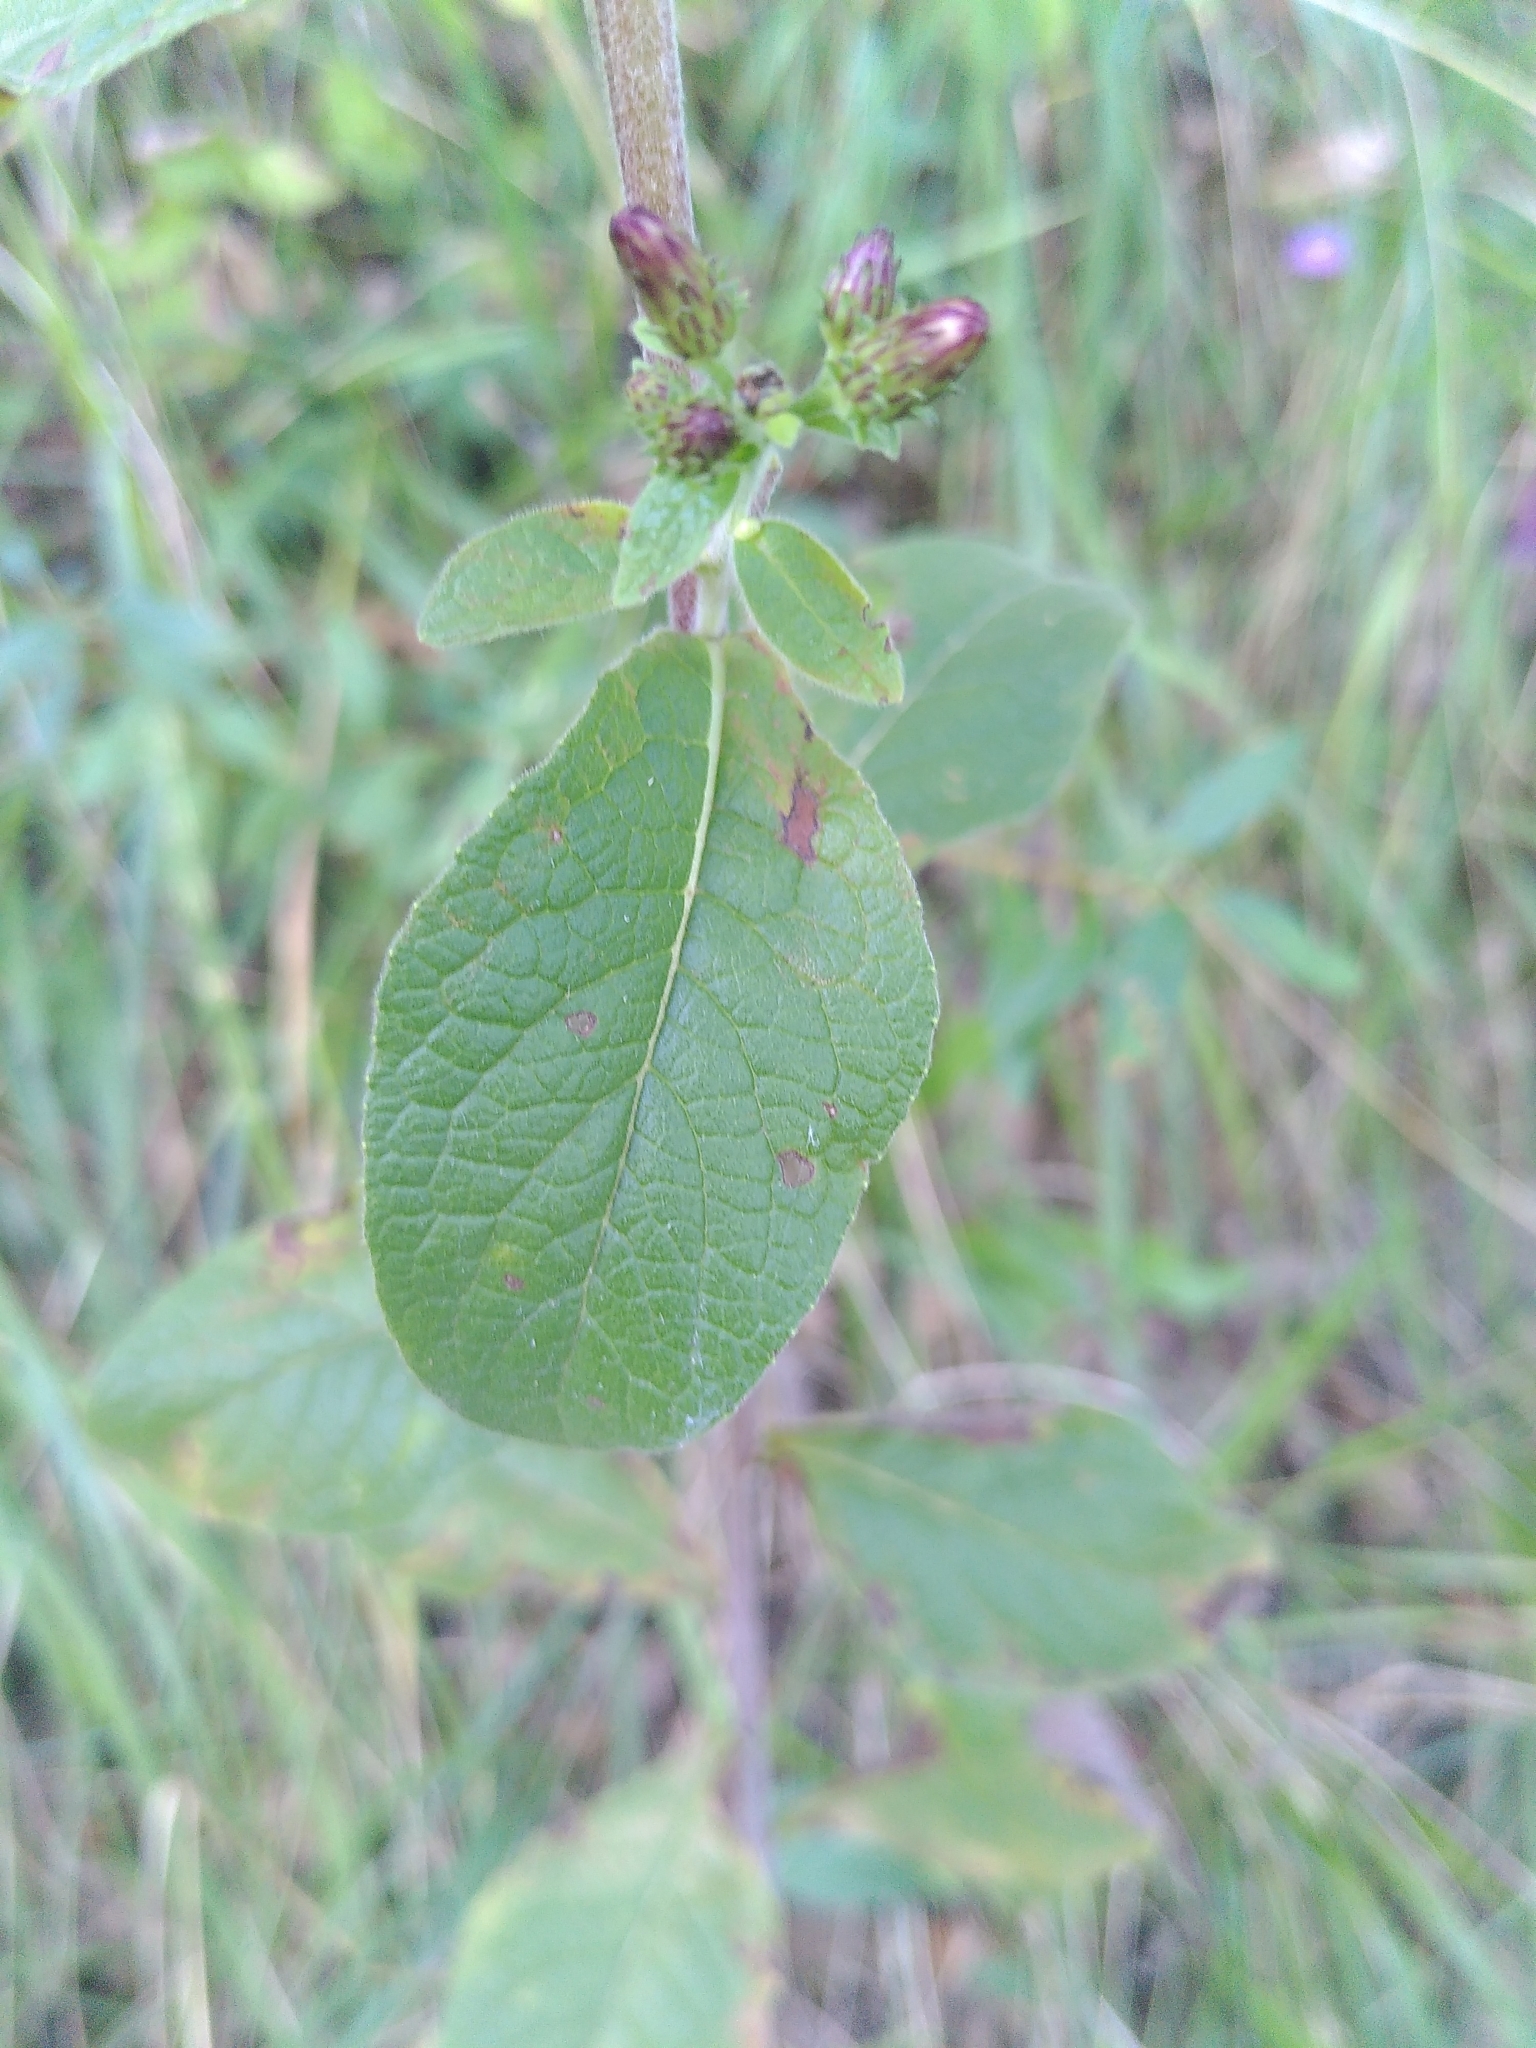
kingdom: Plantae
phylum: Tracheophyta
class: Magnoliopsida
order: Asterales
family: Asteraceae
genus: Pentanema
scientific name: Pentanema squarrosum
